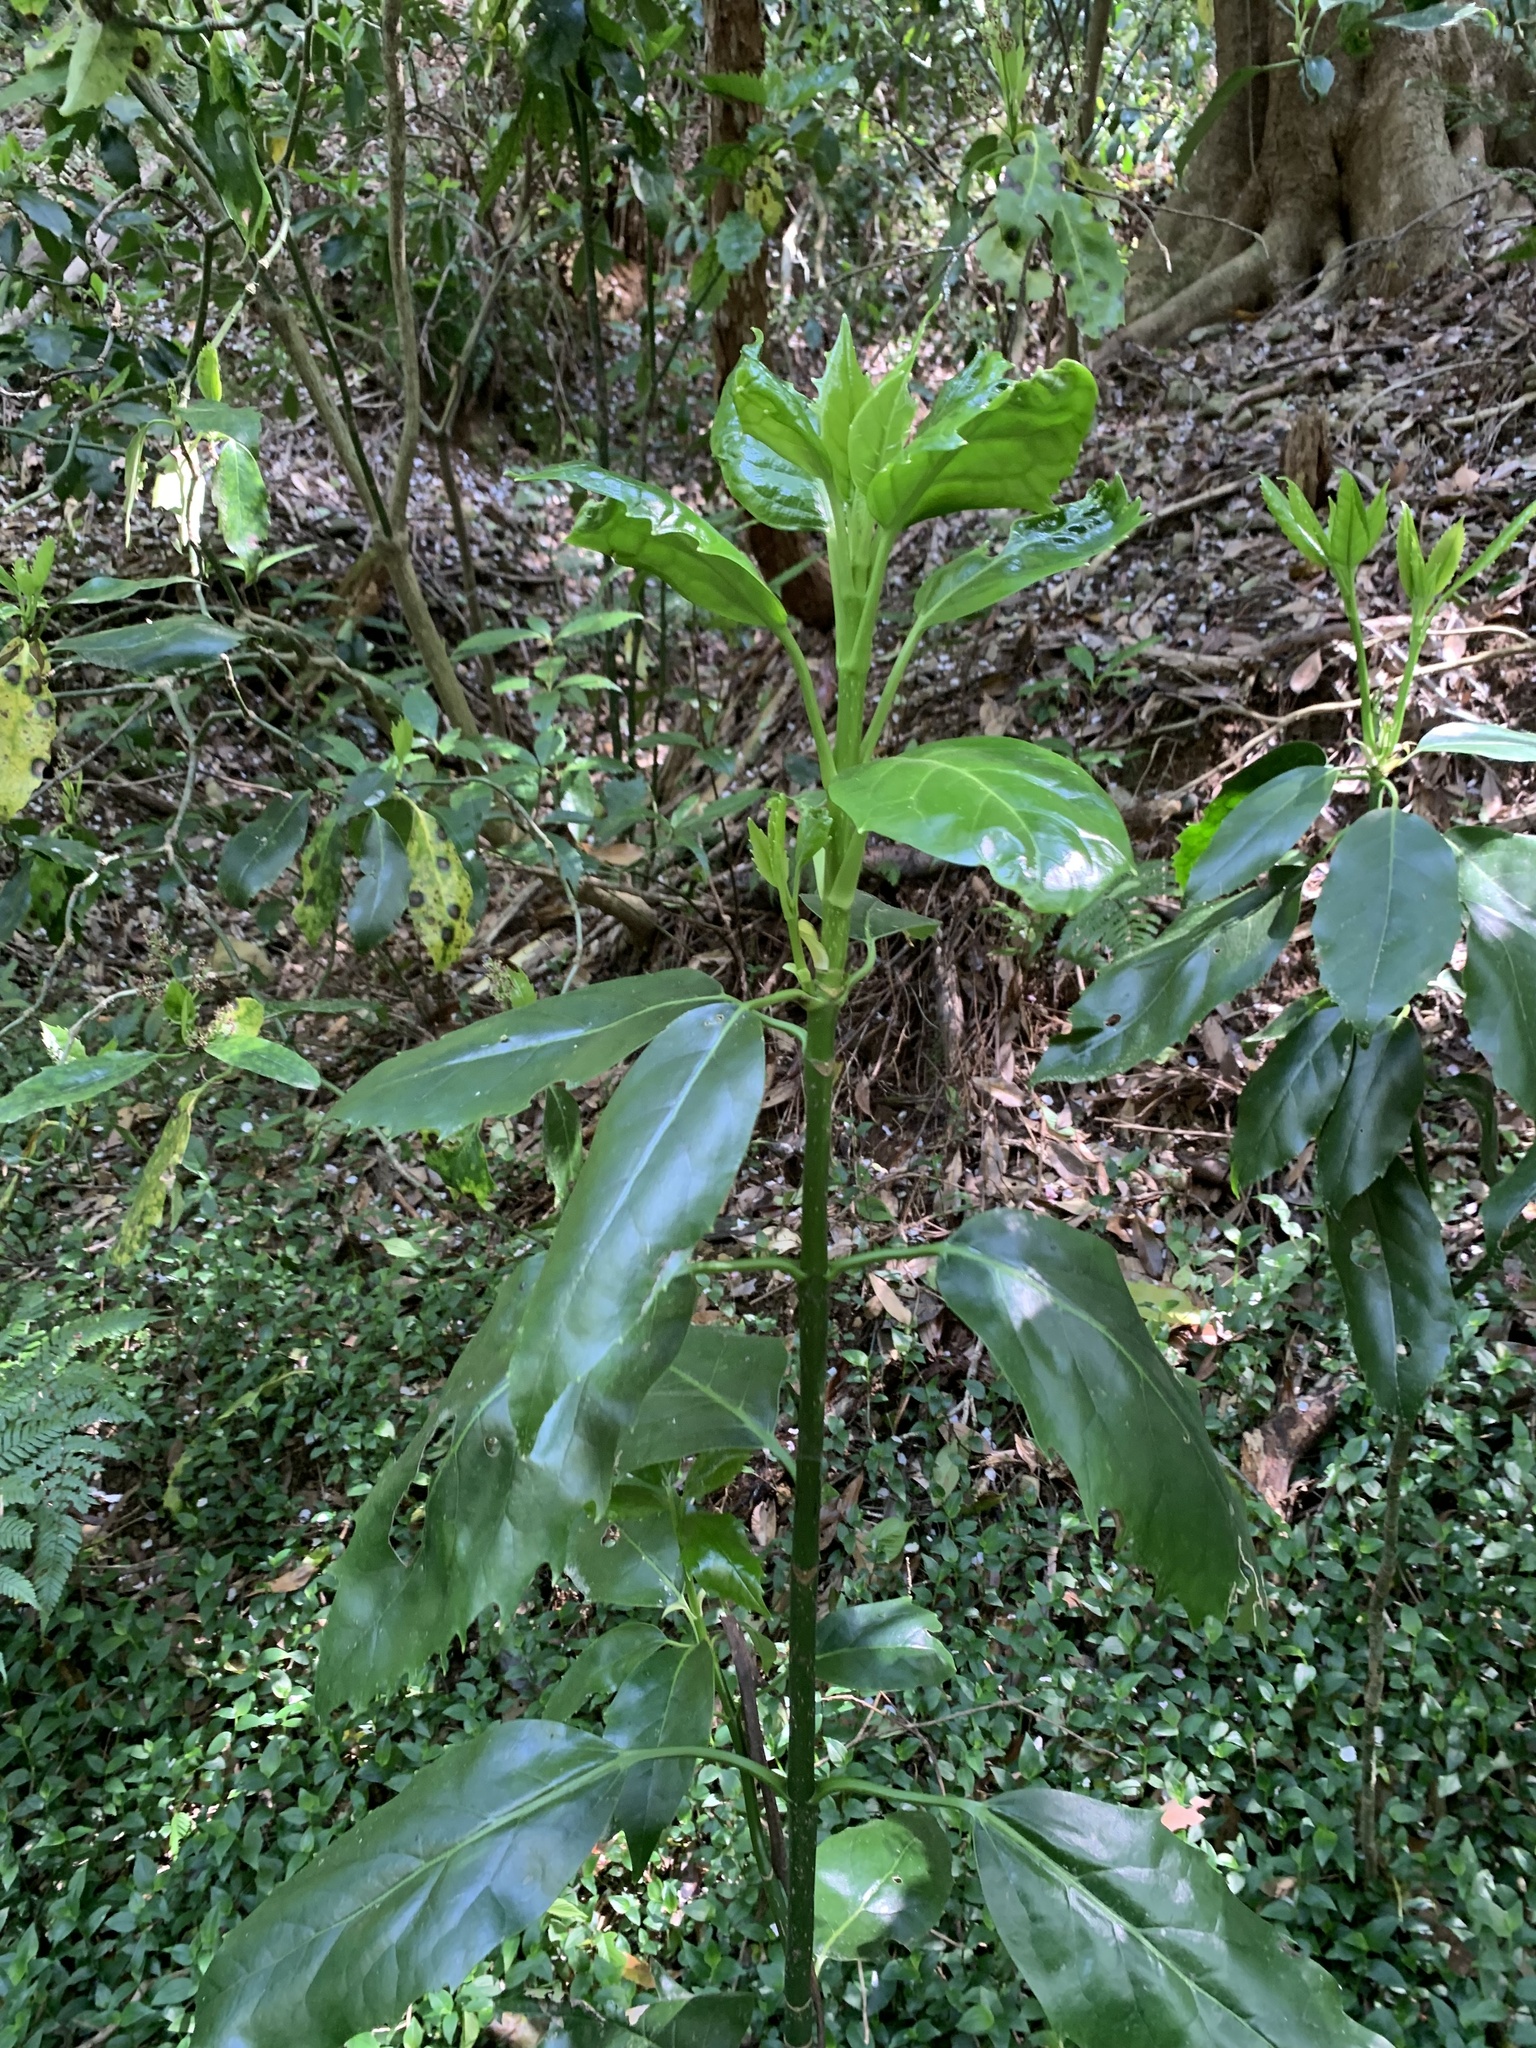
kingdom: Plantae
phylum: Tracheophyta
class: Magnoliopsida
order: Garryales
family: Garryaceae
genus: Aucuba
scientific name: Aucuba japonica
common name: Spotted-laurel
